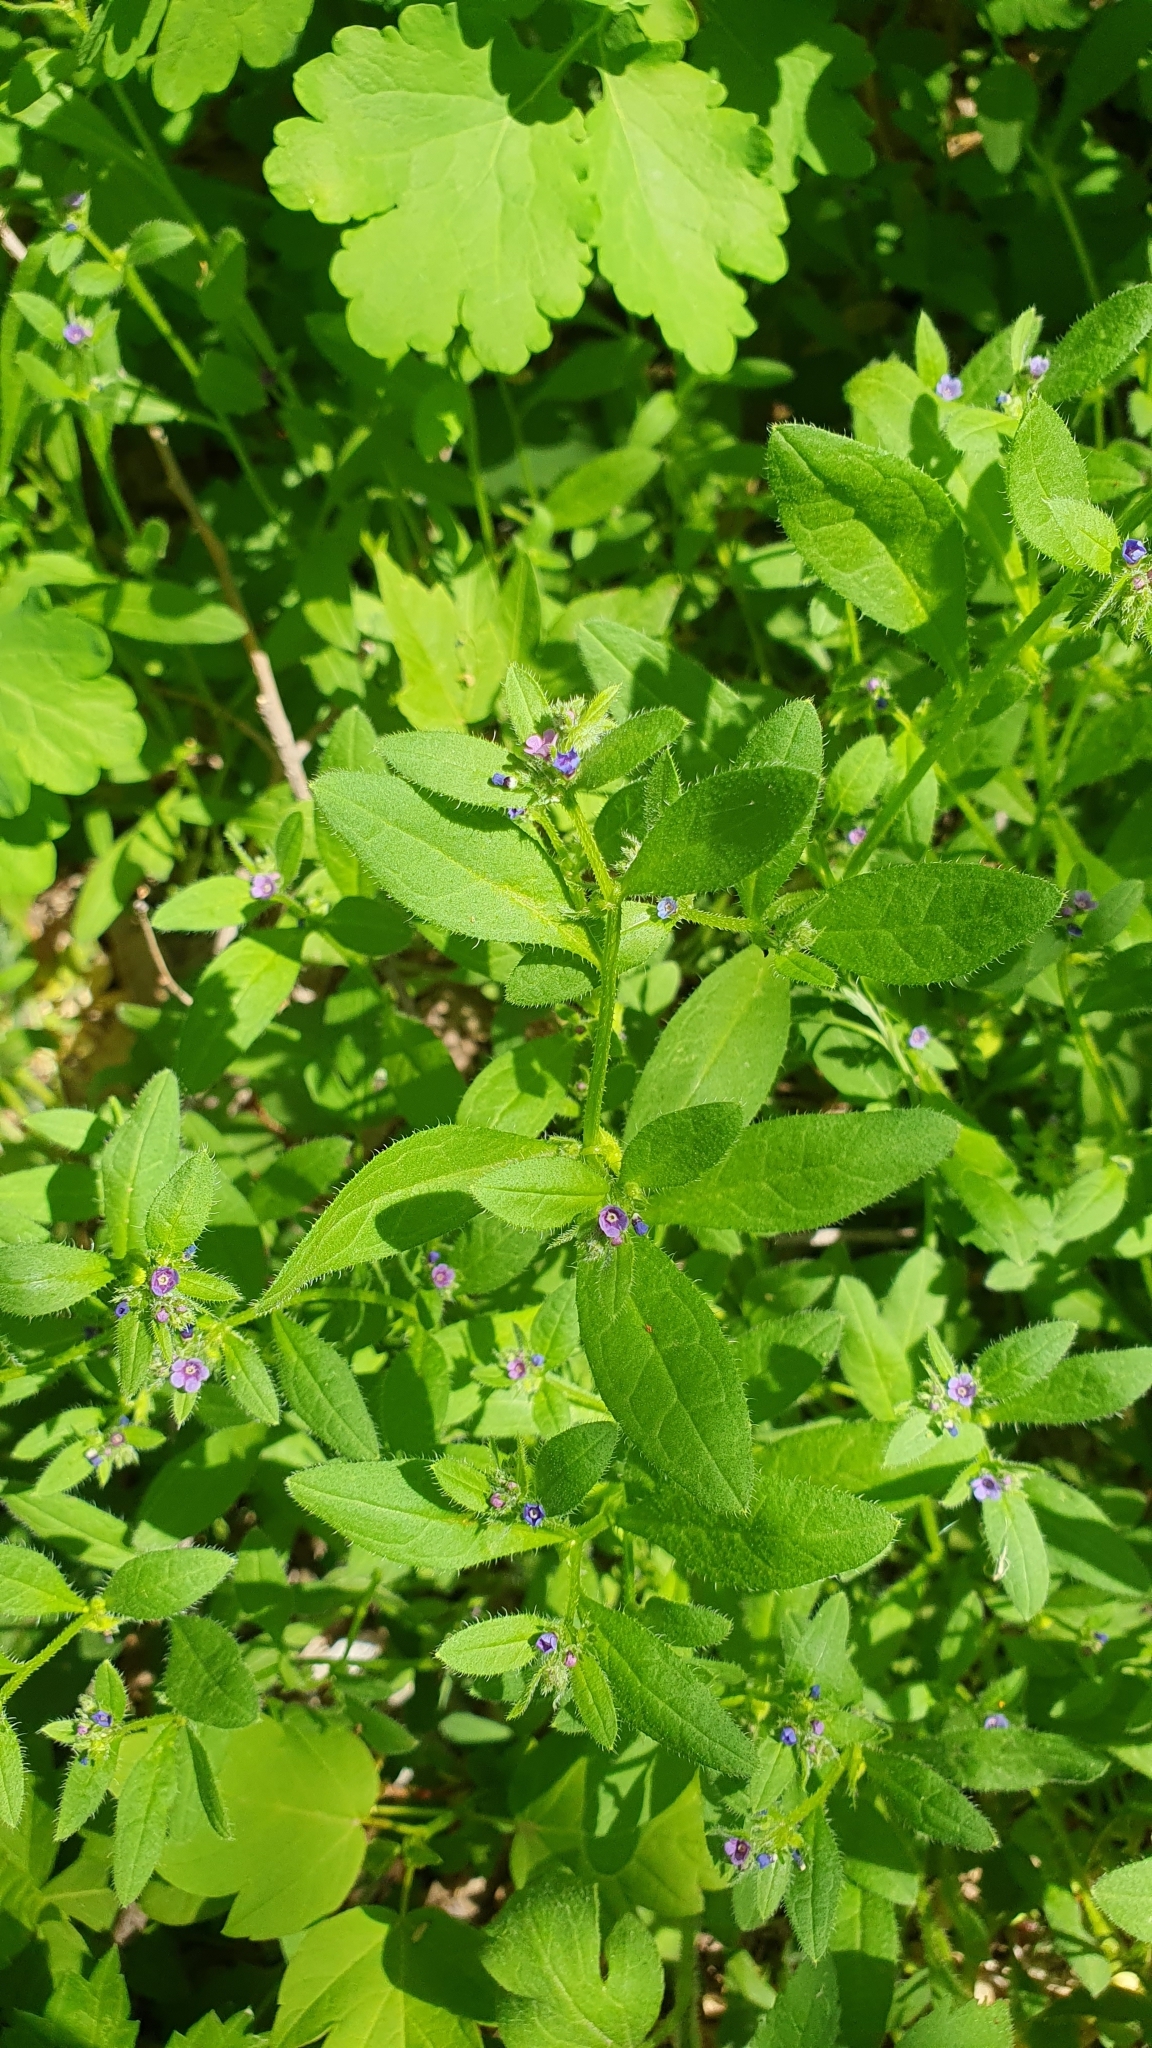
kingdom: Plantae
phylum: Tracheophyta
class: Magnoliopsida
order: Boraginales
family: Boraginaceae
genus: Asperugo
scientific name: Asperugo procumbens
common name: Madwort
